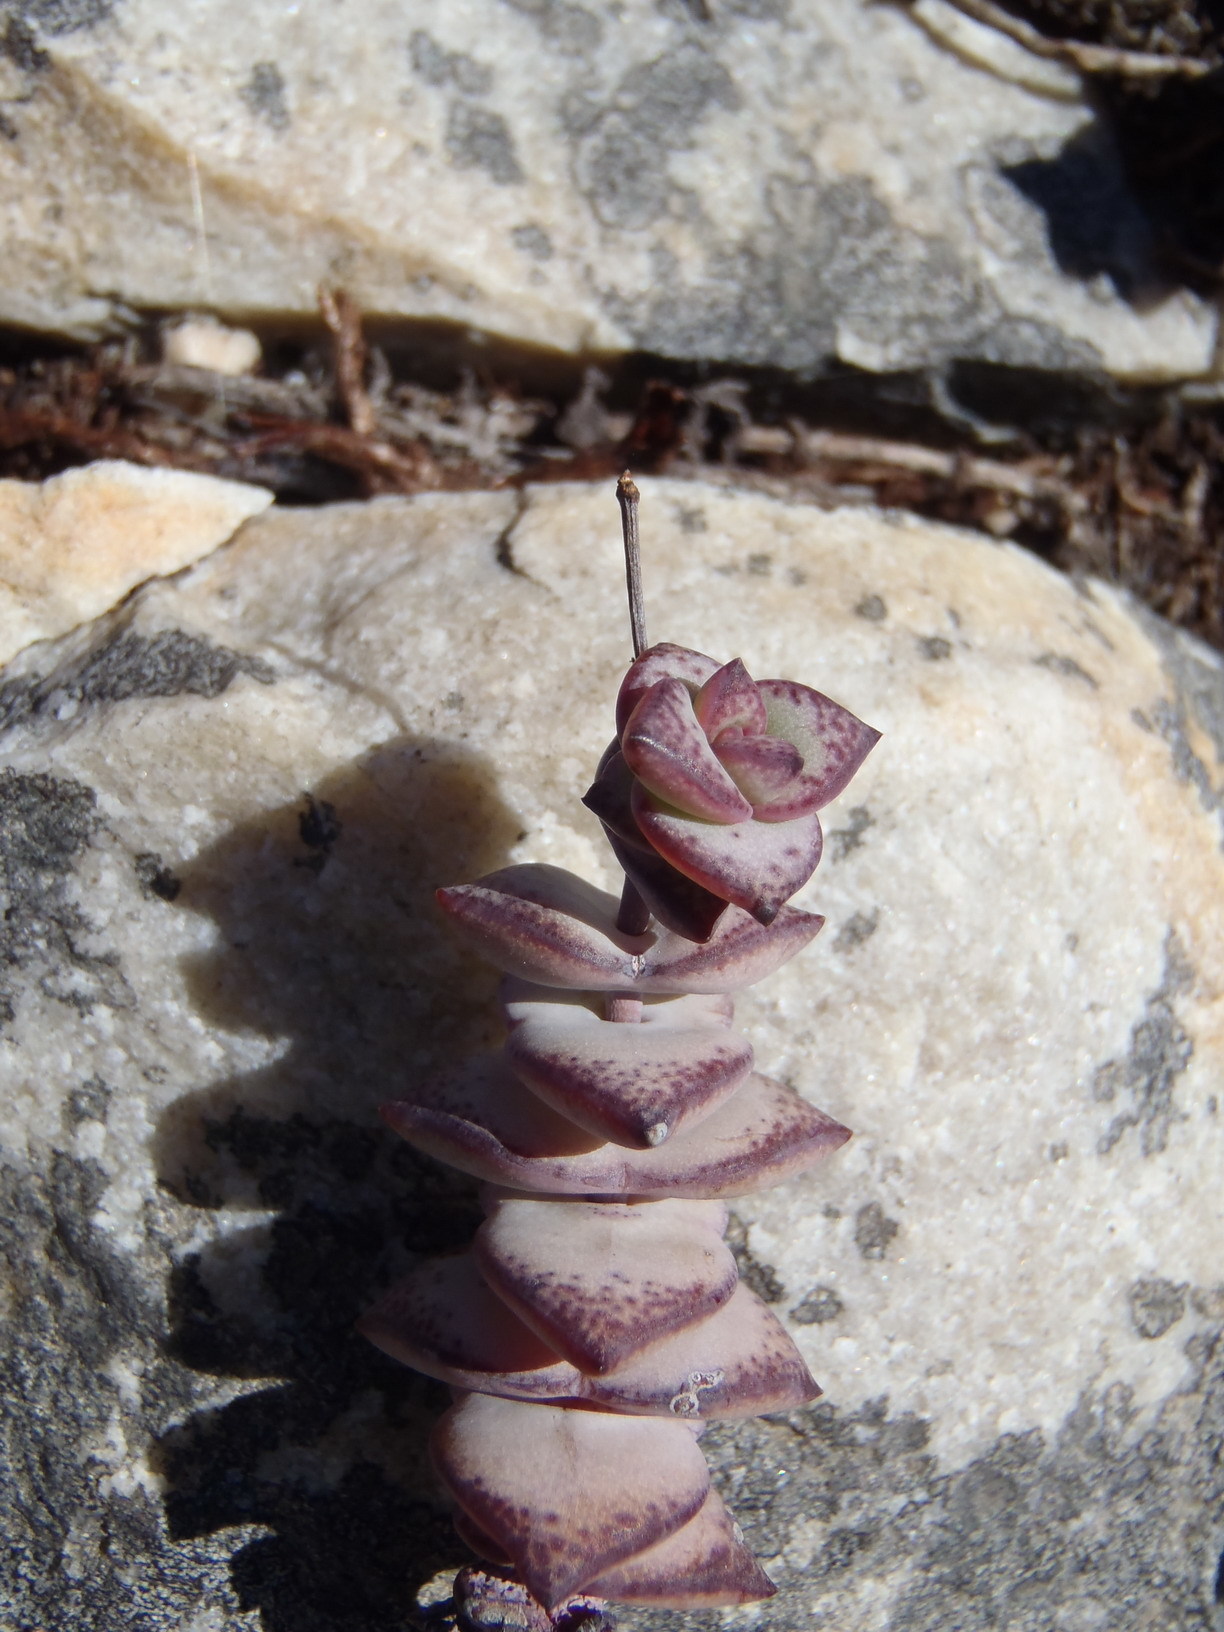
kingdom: Plantae
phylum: Tracheophyta
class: Magnoliopsida
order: Saxifragales
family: Crassulaceae
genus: Crassula
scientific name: Crassula perforata
